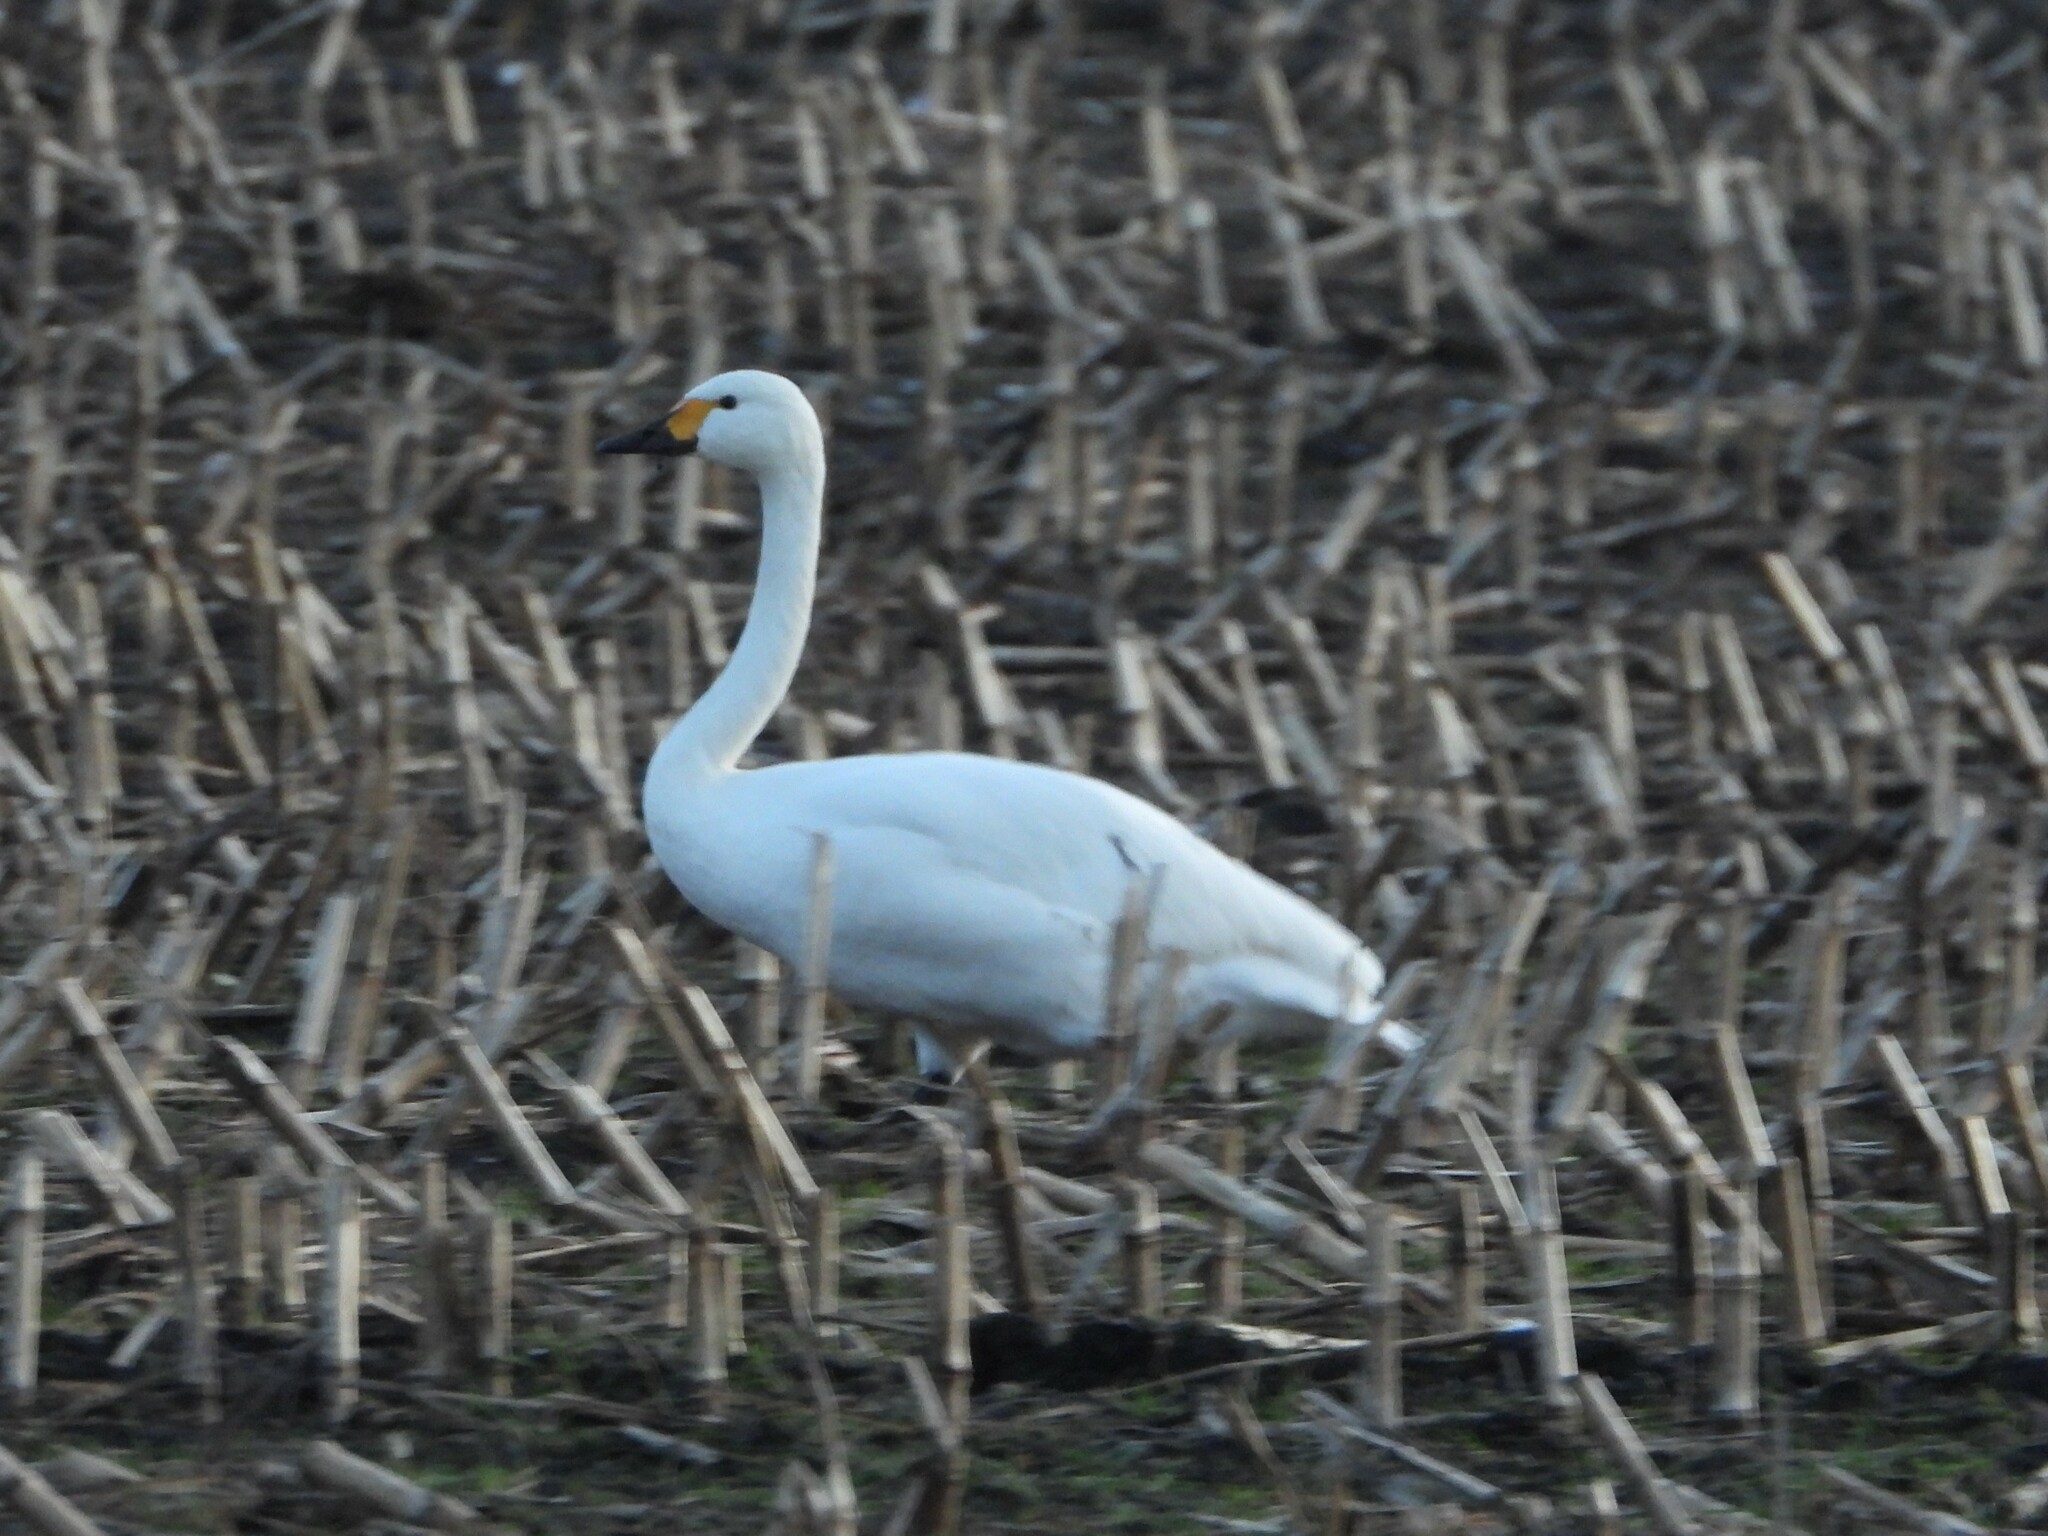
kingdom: Animalia
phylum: Chordata
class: Aves
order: Anseriformes
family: Anatidae
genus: Cygnus
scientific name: Cygnus columbianus
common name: Tundra swan
